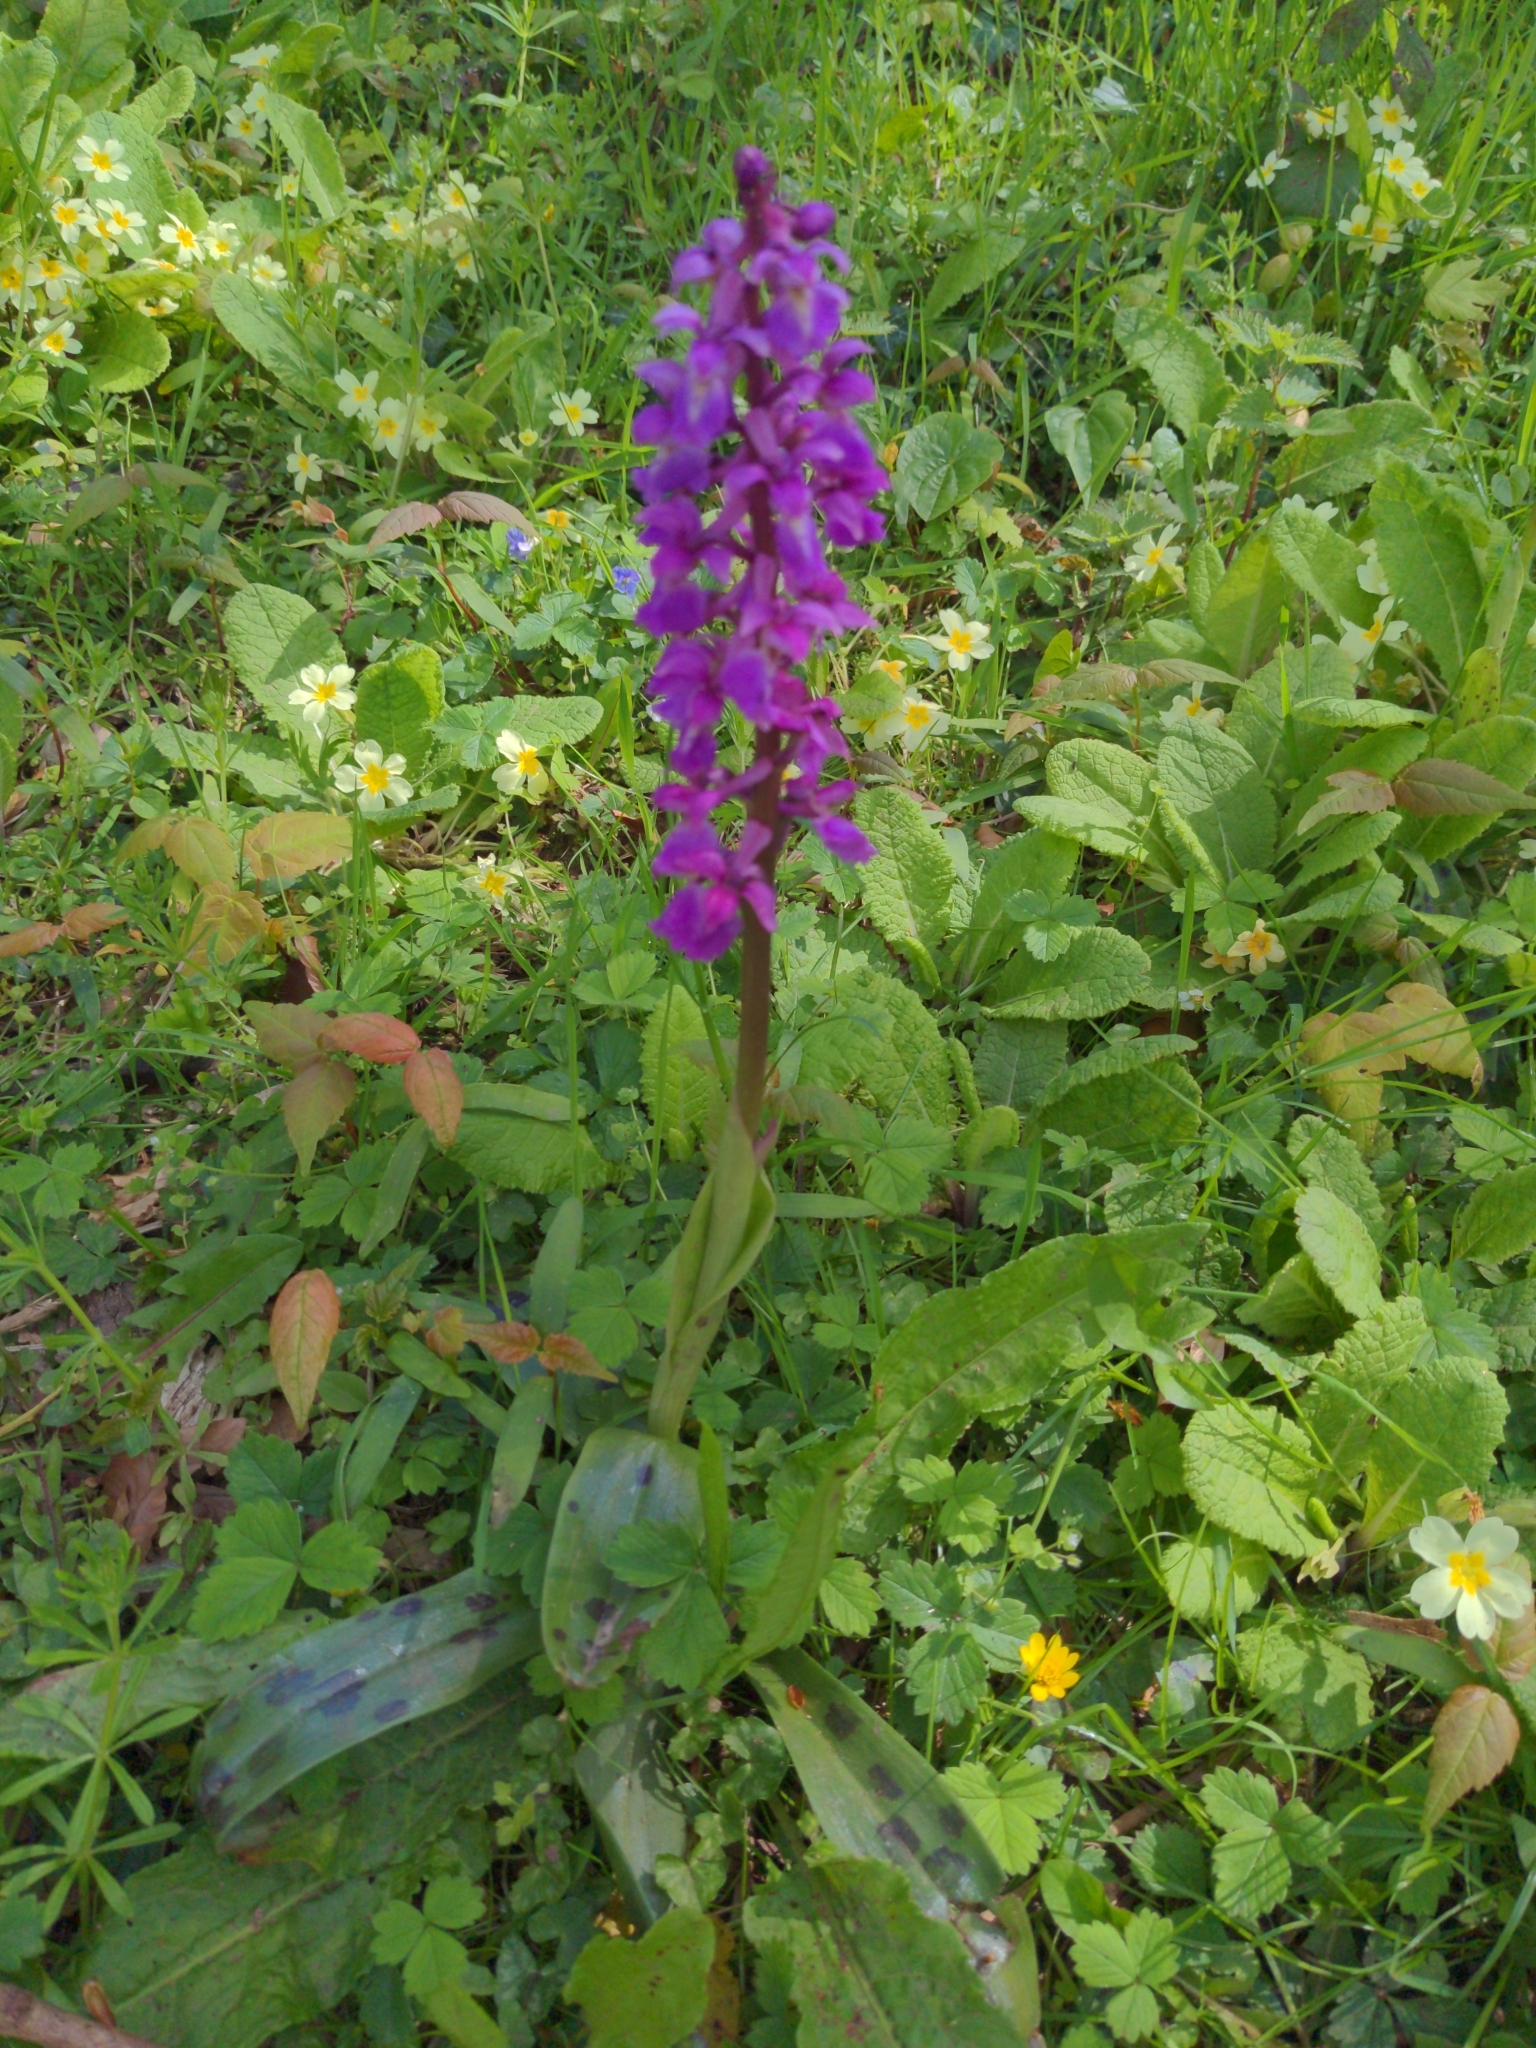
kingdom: Plantae
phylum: Tracheophyta
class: Liliopsida
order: Asparagales
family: Orchidaceae
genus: Orchis
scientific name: Orchis mascula
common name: Early-purple orchid
